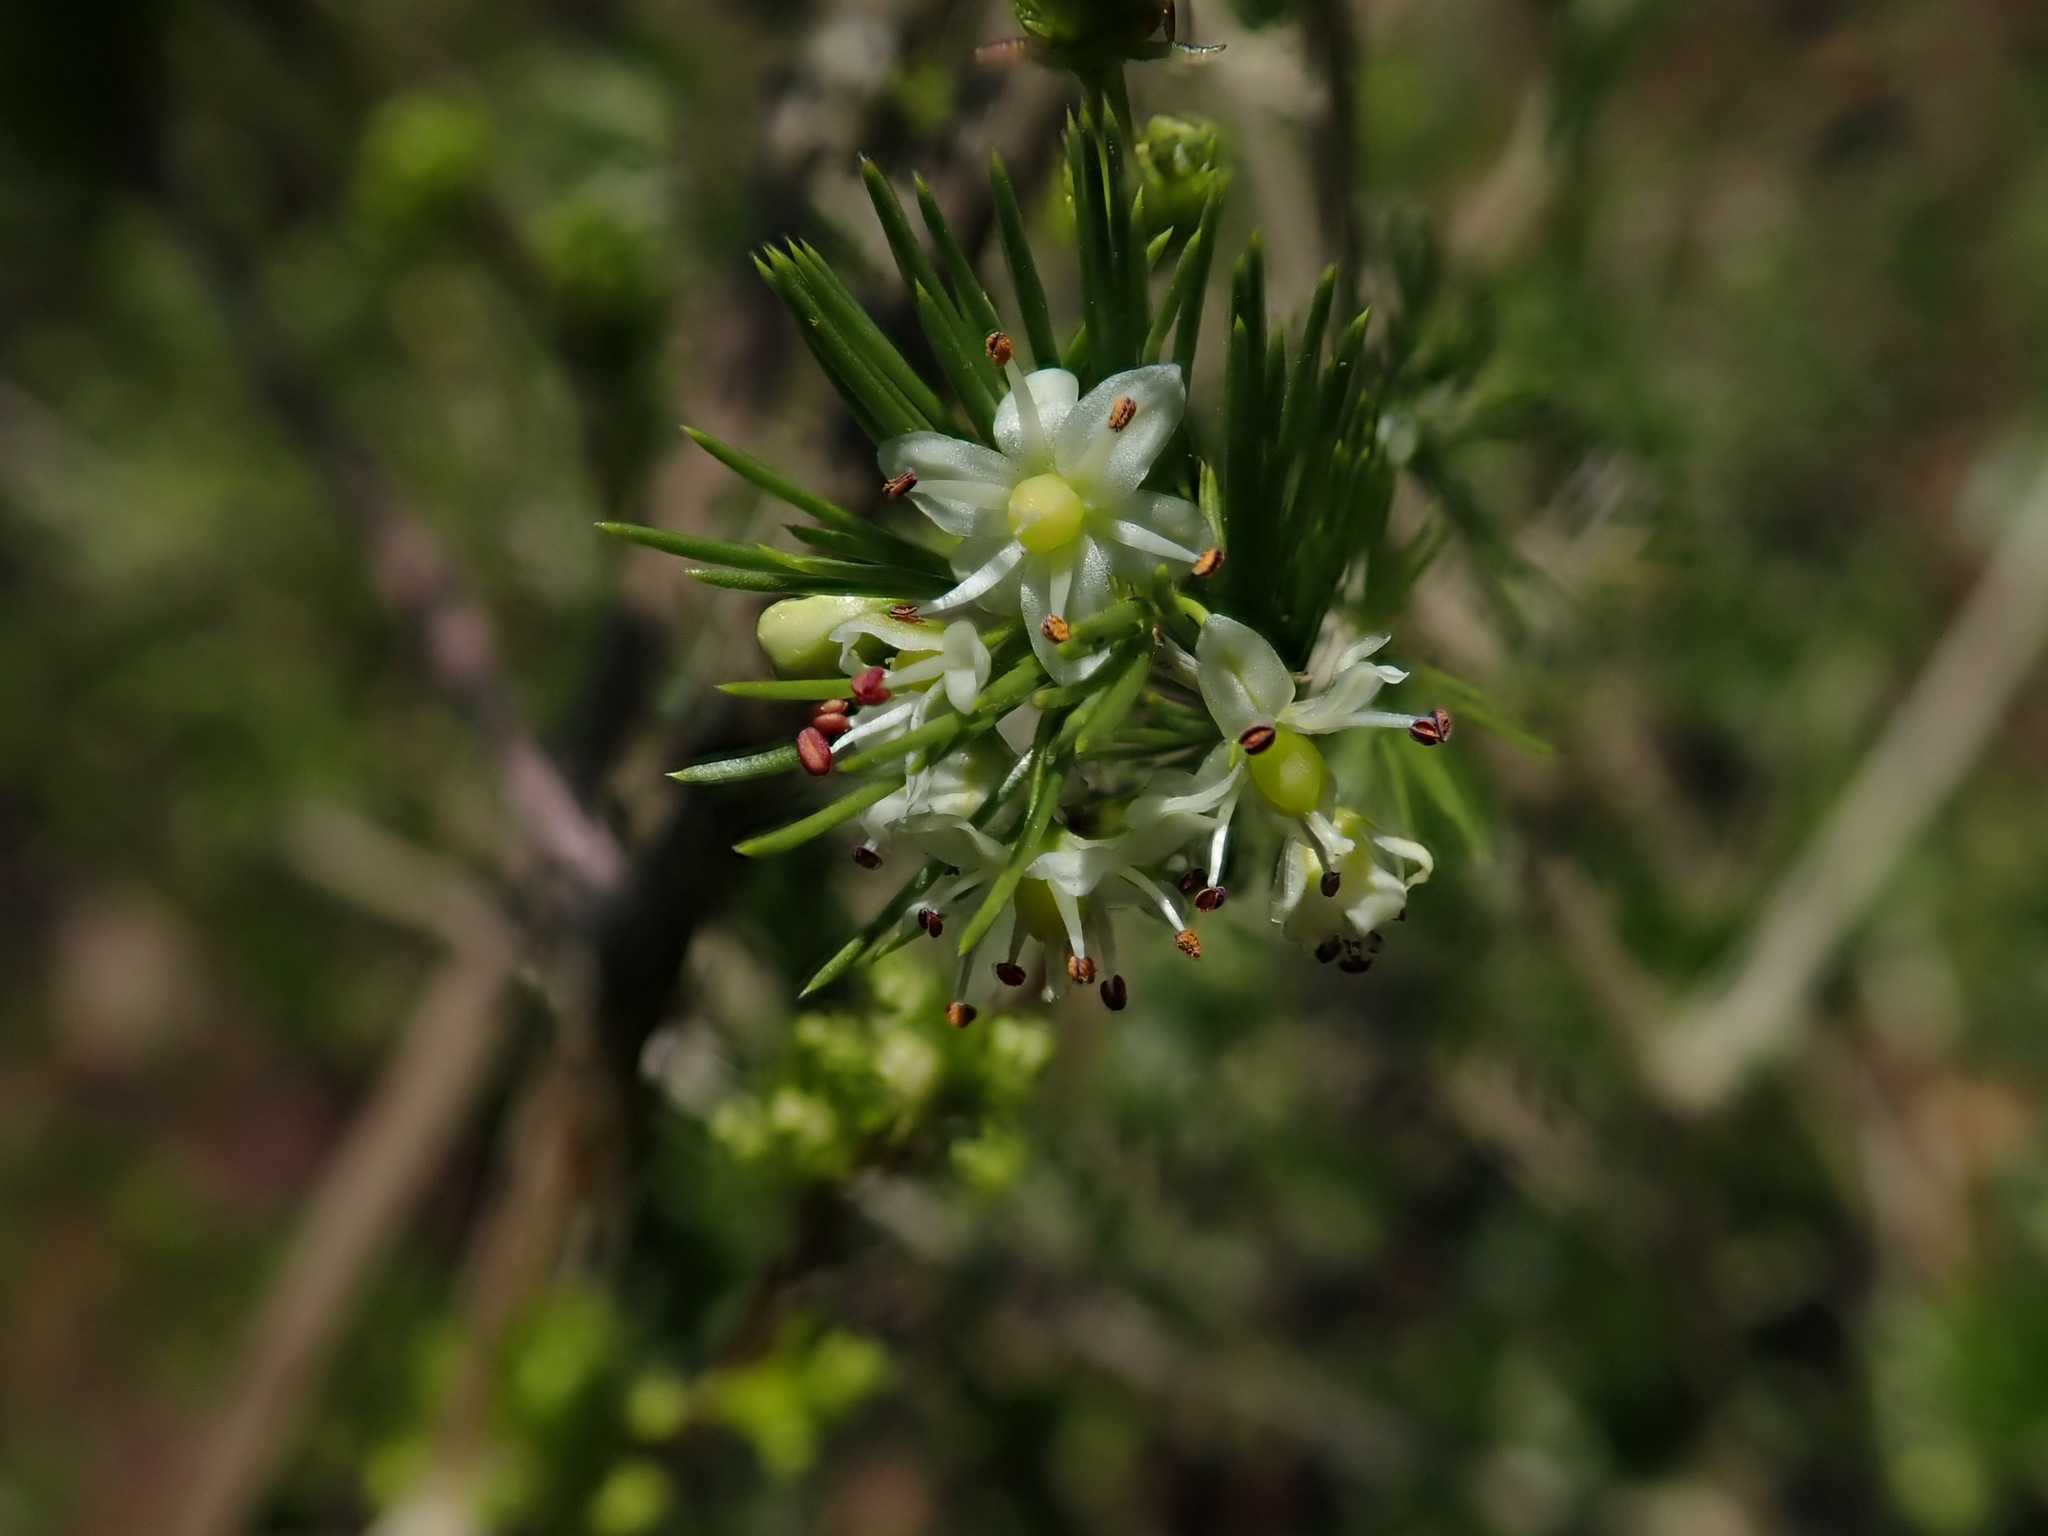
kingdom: Plantae
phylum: Tracheophyta
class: Liliopsida
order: Asparagales
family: Asparagaceae
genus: Asparagus
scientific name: Asparagus laricinus
